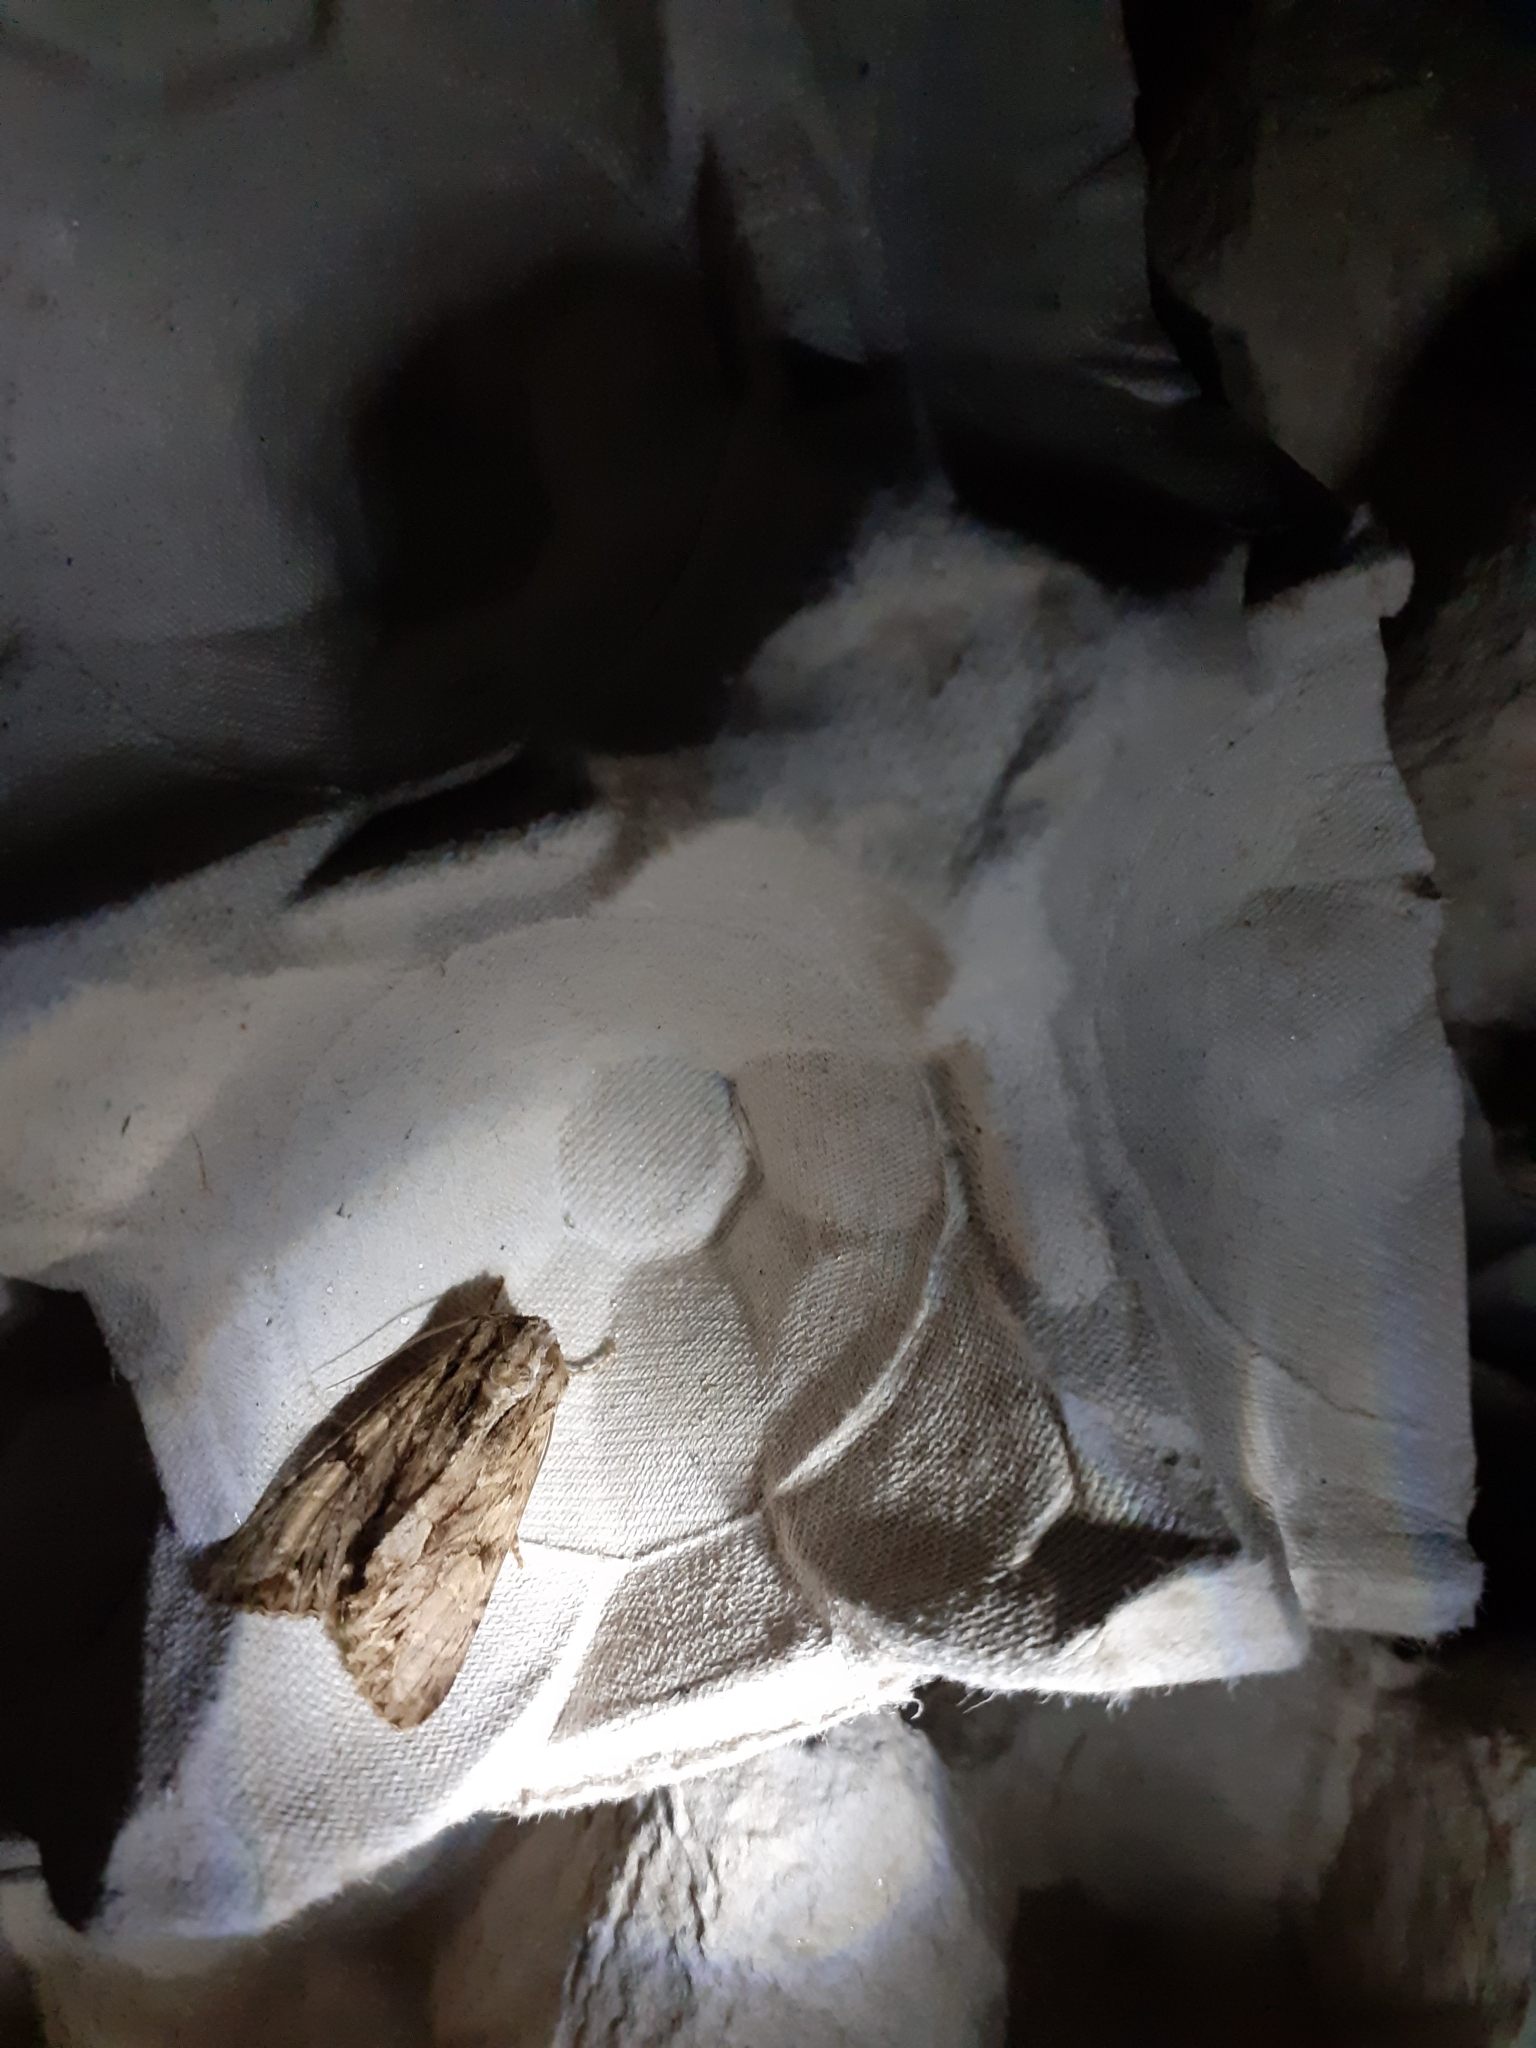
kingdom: Animalia
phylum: Arthropoda
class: Insecta
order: Lepidoptera
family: Noctuidae
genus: Apamea
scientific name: Apamea monoglypha
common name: Dark arches
